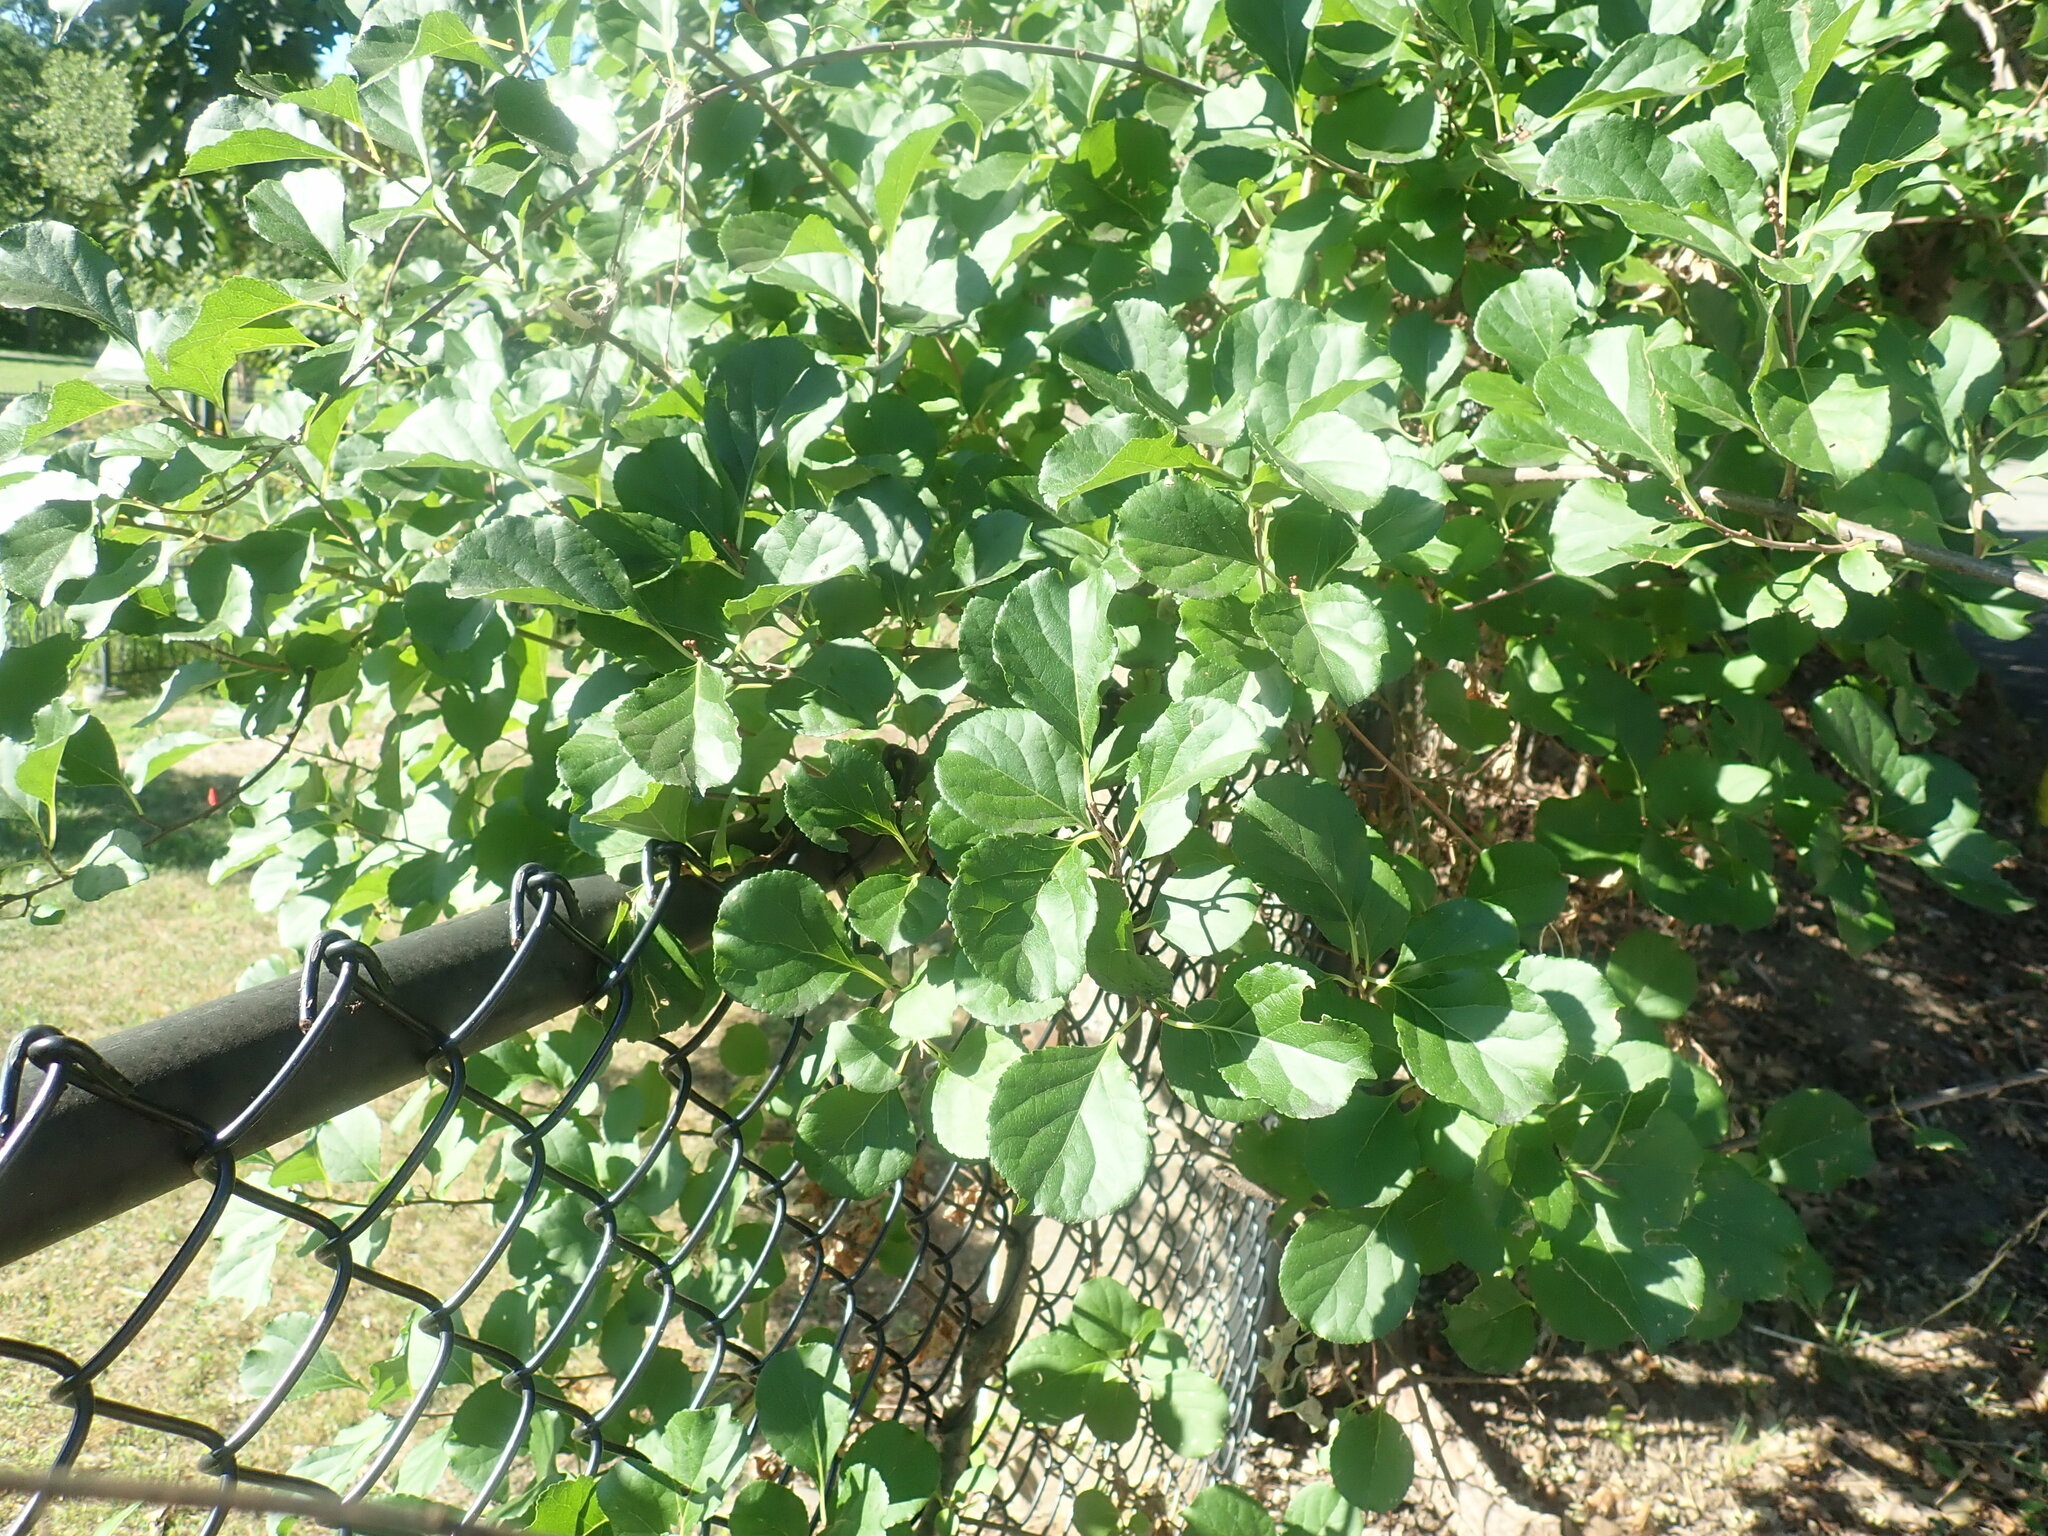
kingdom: Plantae
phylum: Tracheophyta
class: Magnoliopsida
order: Celastrales
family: Celastraceae
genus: Celastrus
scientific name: Celastrus orbiculatus
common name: Oriental bittersweet
